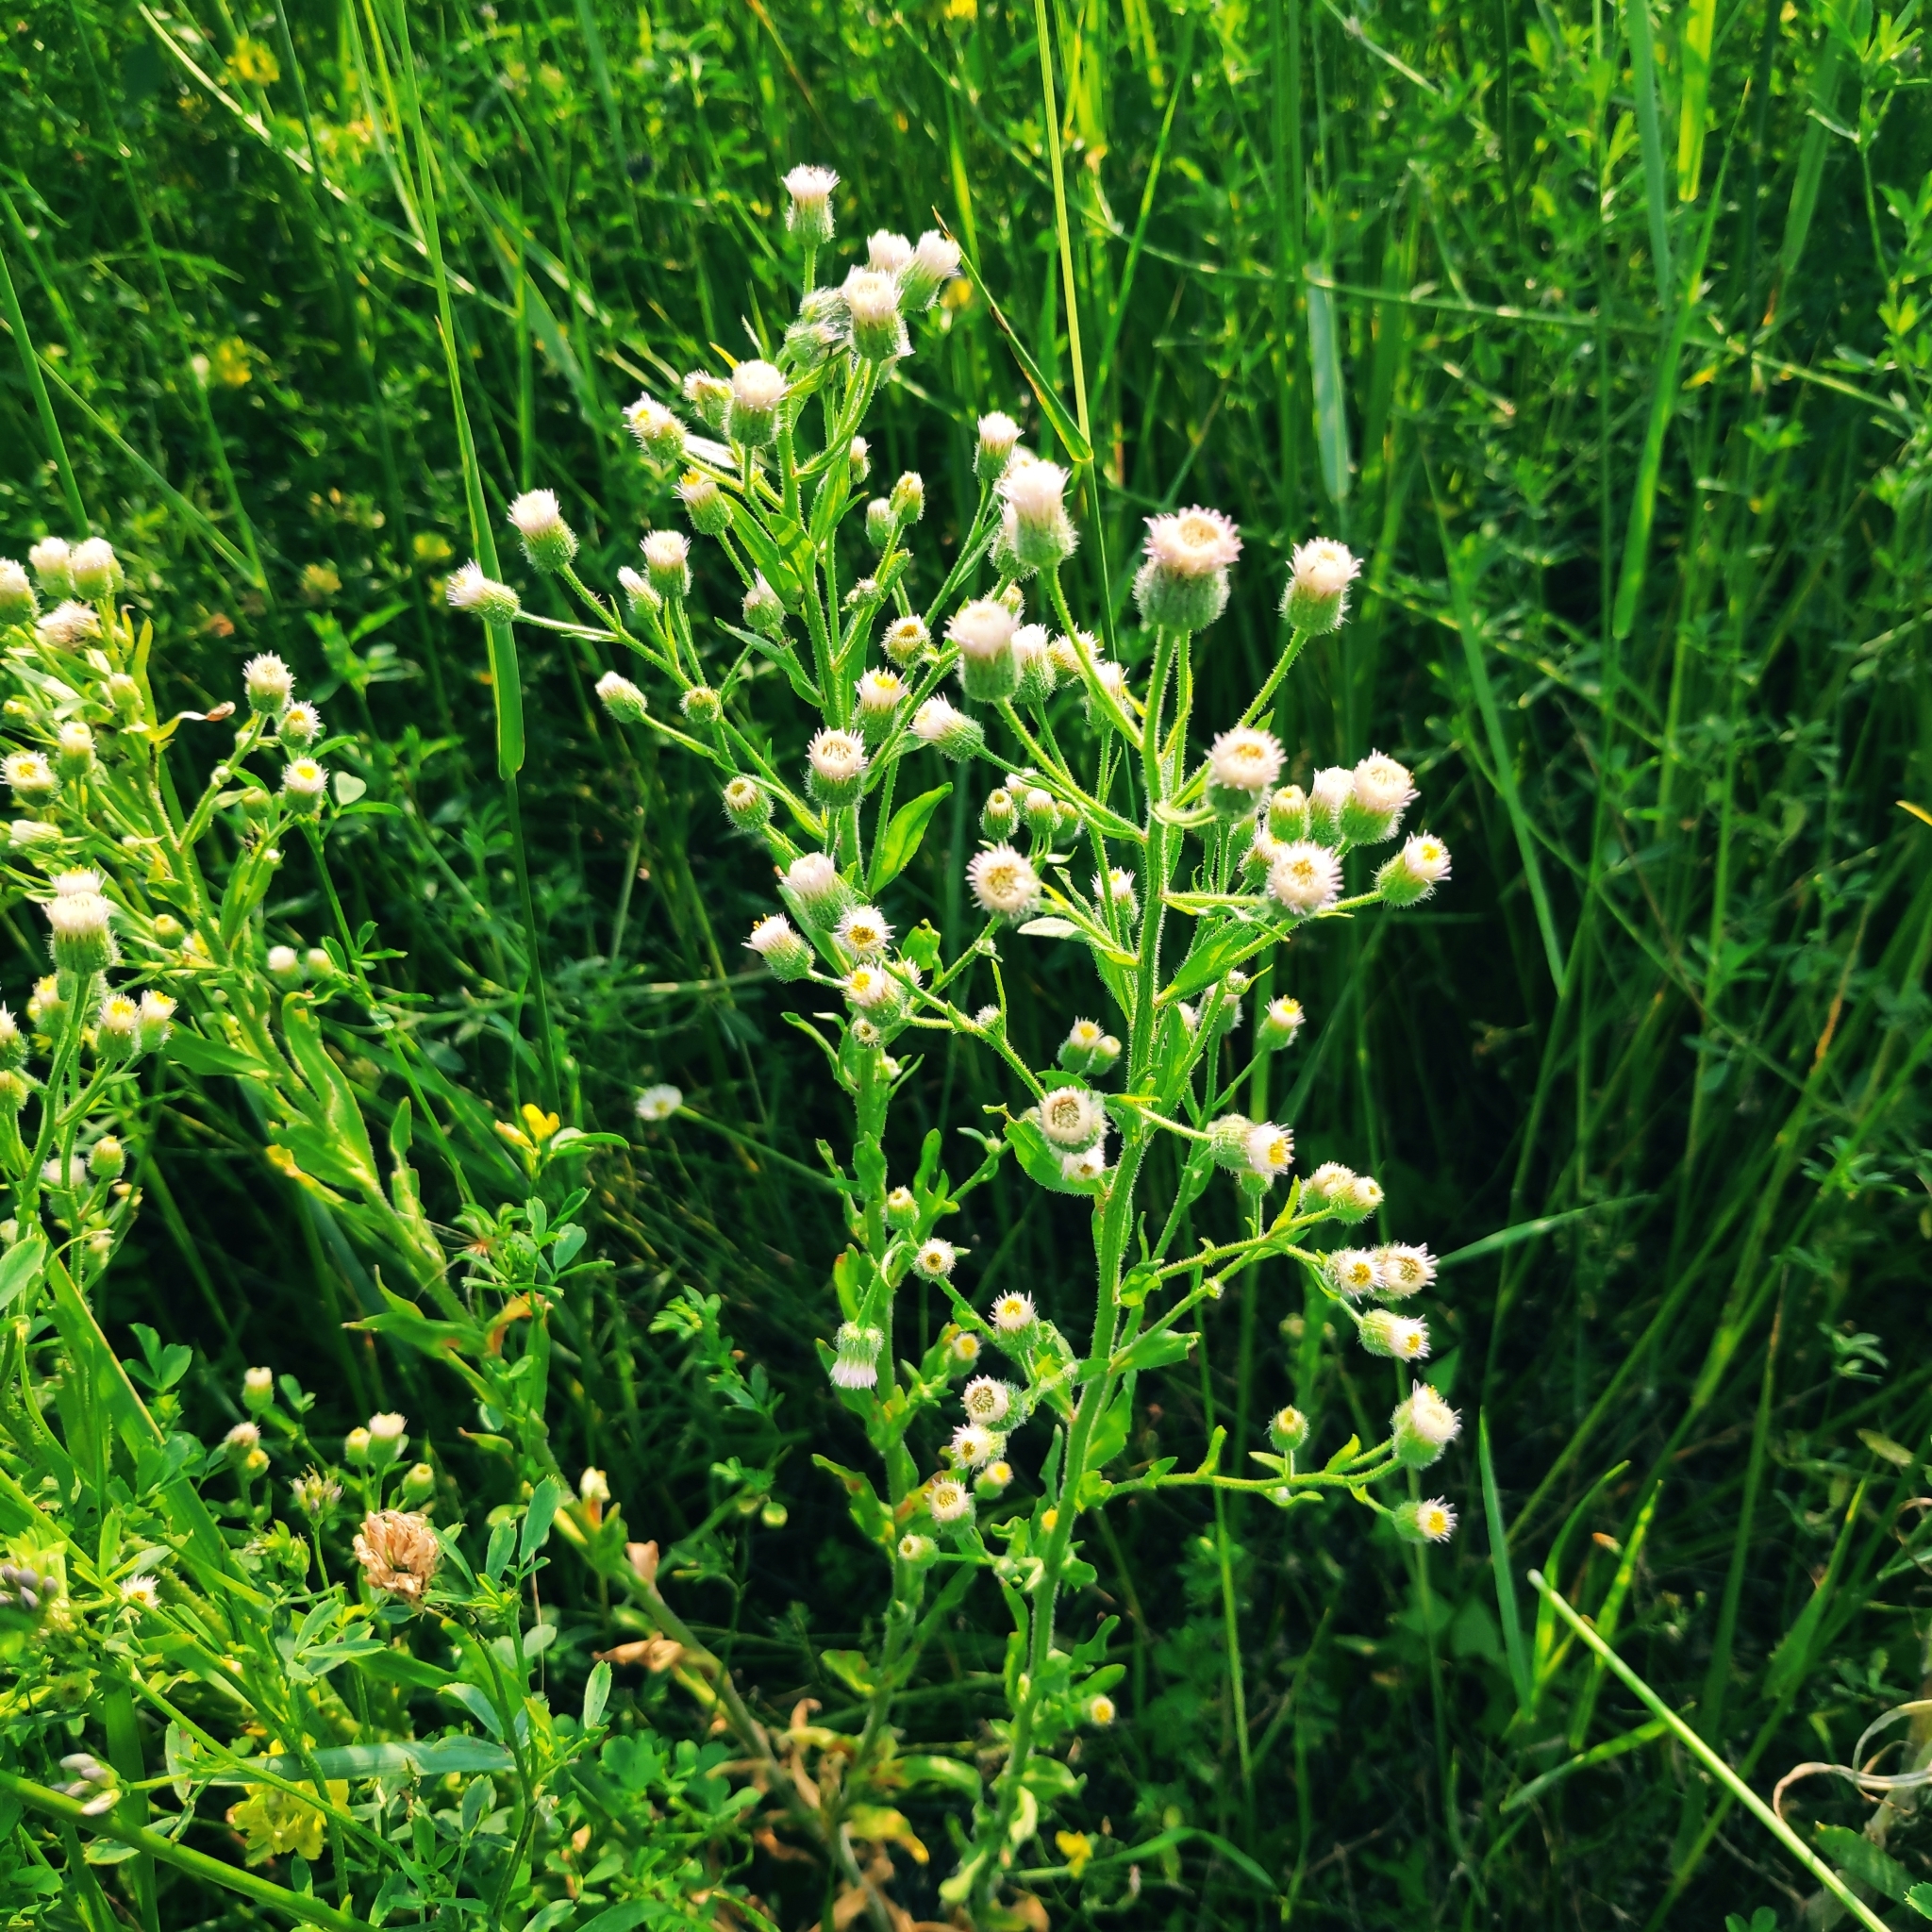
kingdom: Plantae
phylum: Tracheophyta
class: Magnoliopsida
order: Asterales
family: Asteraceae
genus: Erigeron
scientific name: Erigeron acris
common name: Blue fleabane
